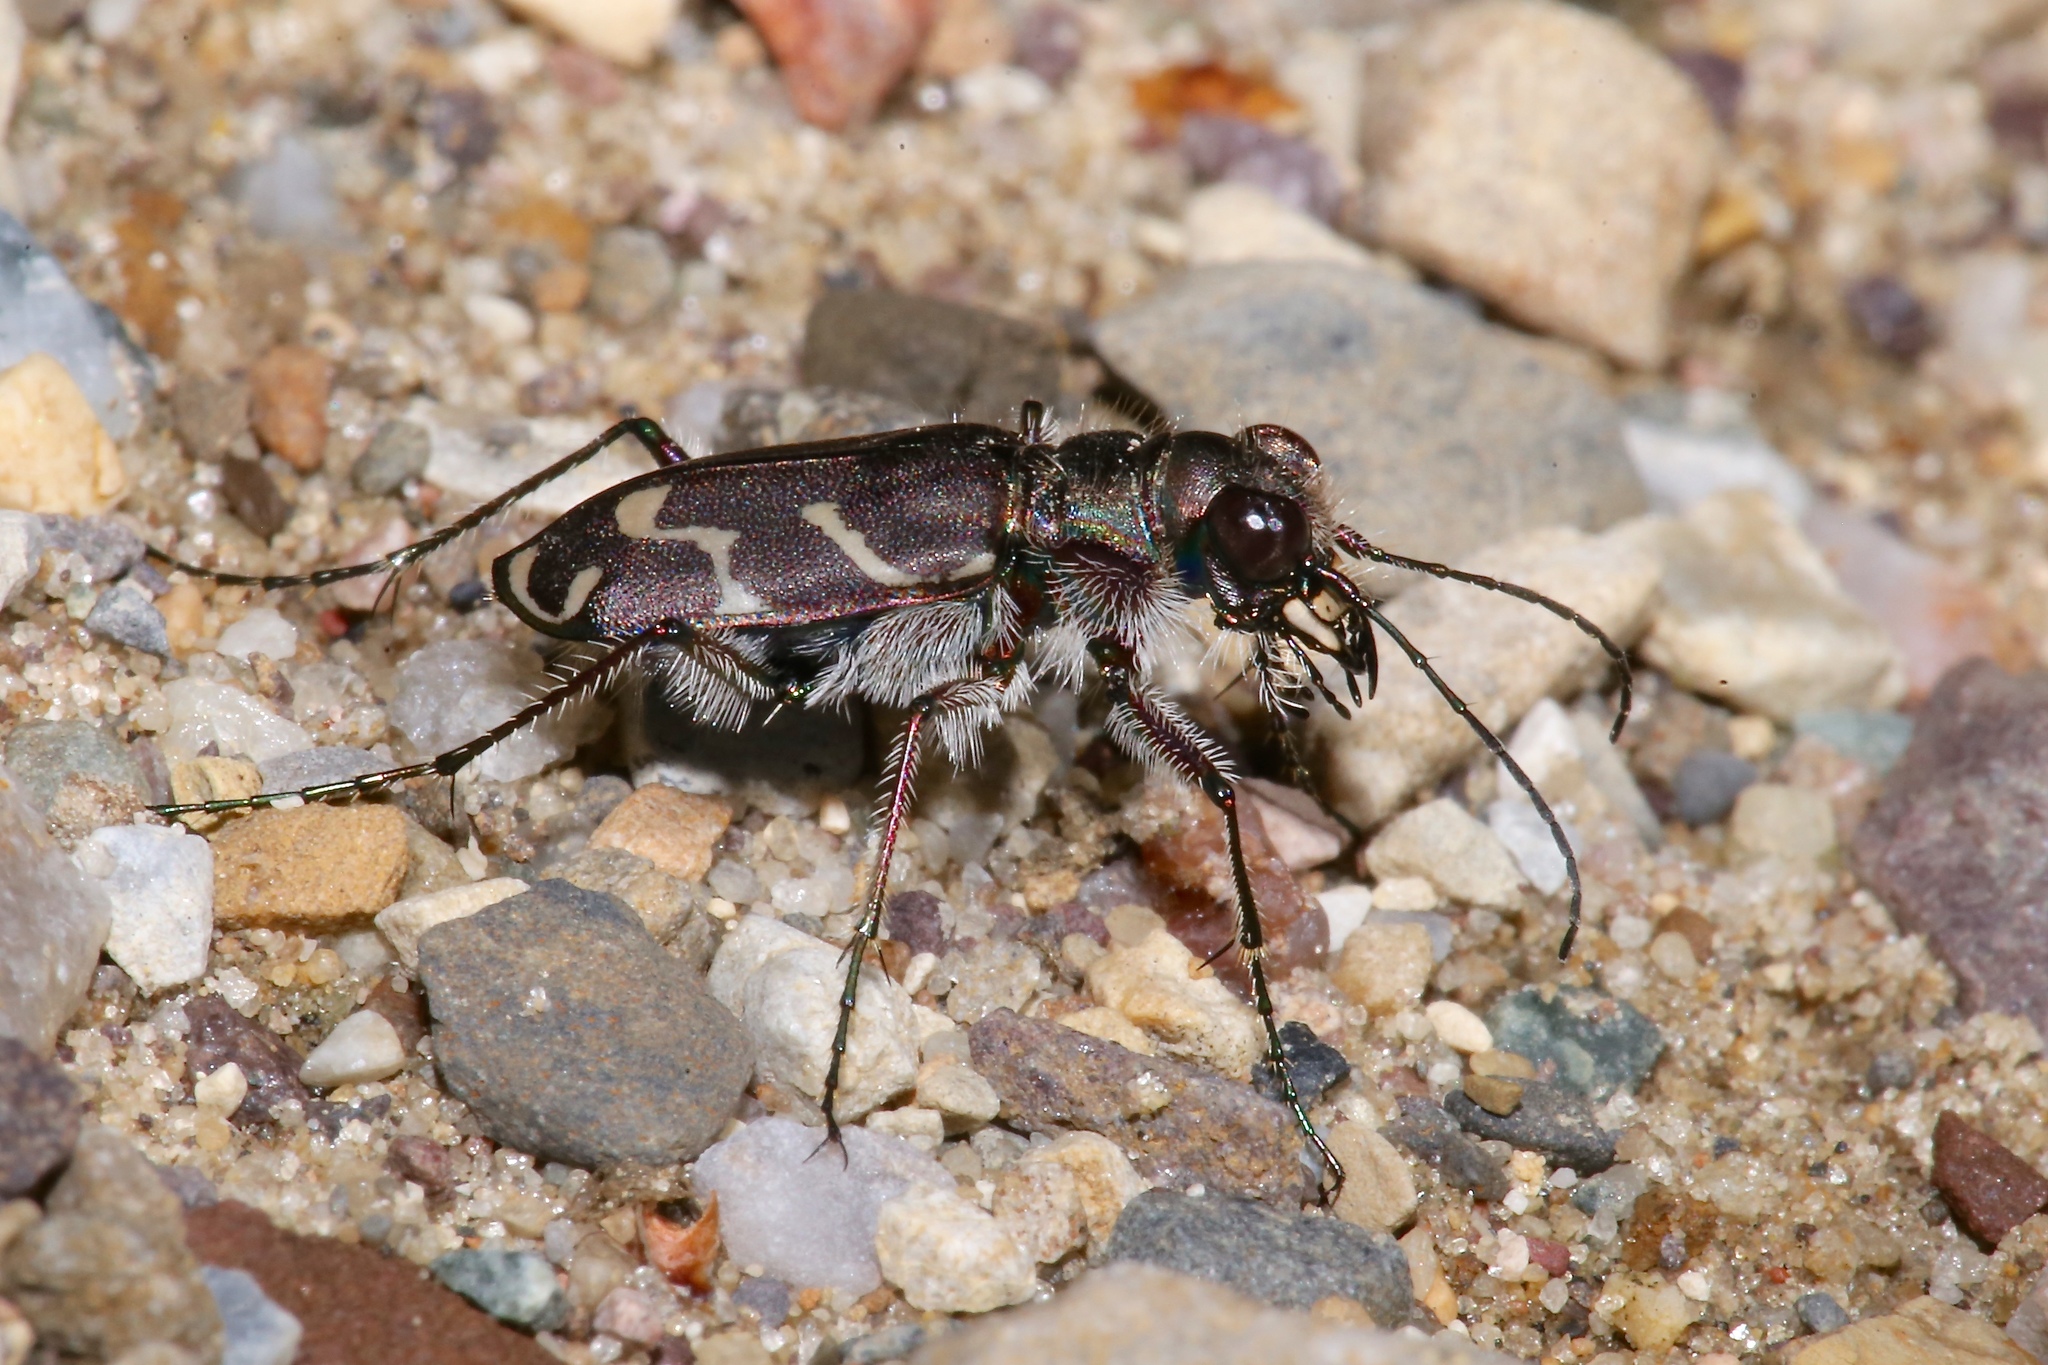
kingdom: Animalia
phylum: Arthropoda
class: Insecta
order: Coleoptera
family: Carabidae
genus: Cicindela
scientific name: Cicindela tranquebarica
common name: Oblique-lined tiger beetle
